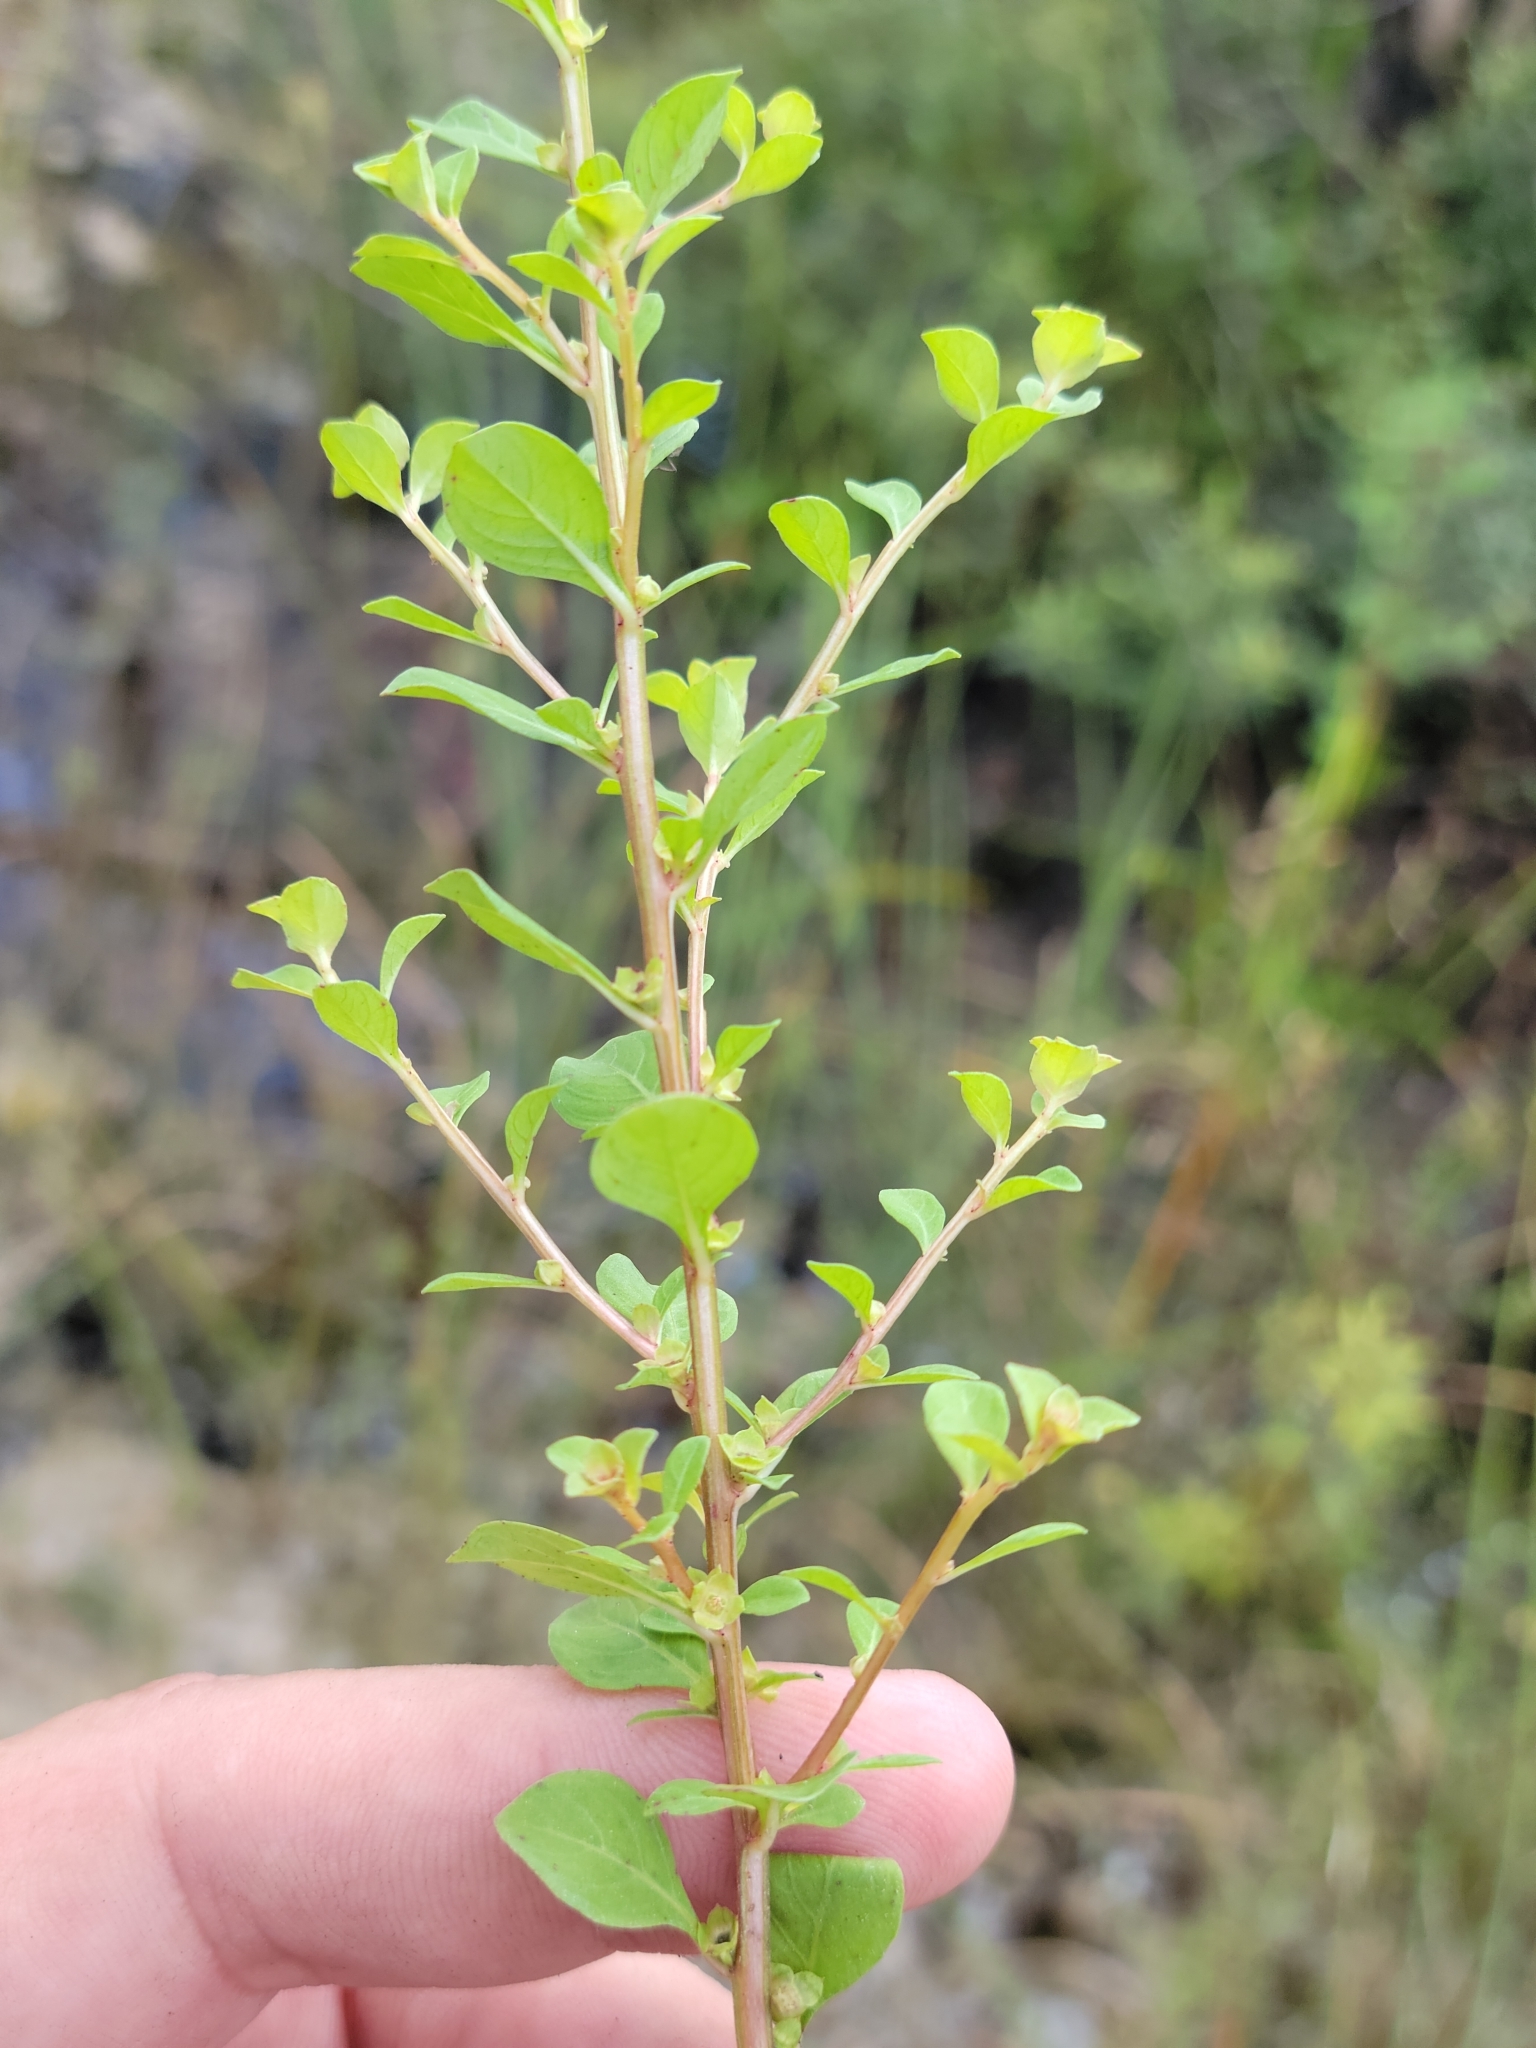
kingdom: Plantae
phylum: Tracheophyta
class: Magnoliopsida
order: Myrtales
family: Onagraceae
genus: Ludwigia
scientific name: Ludwigia microcarpa
